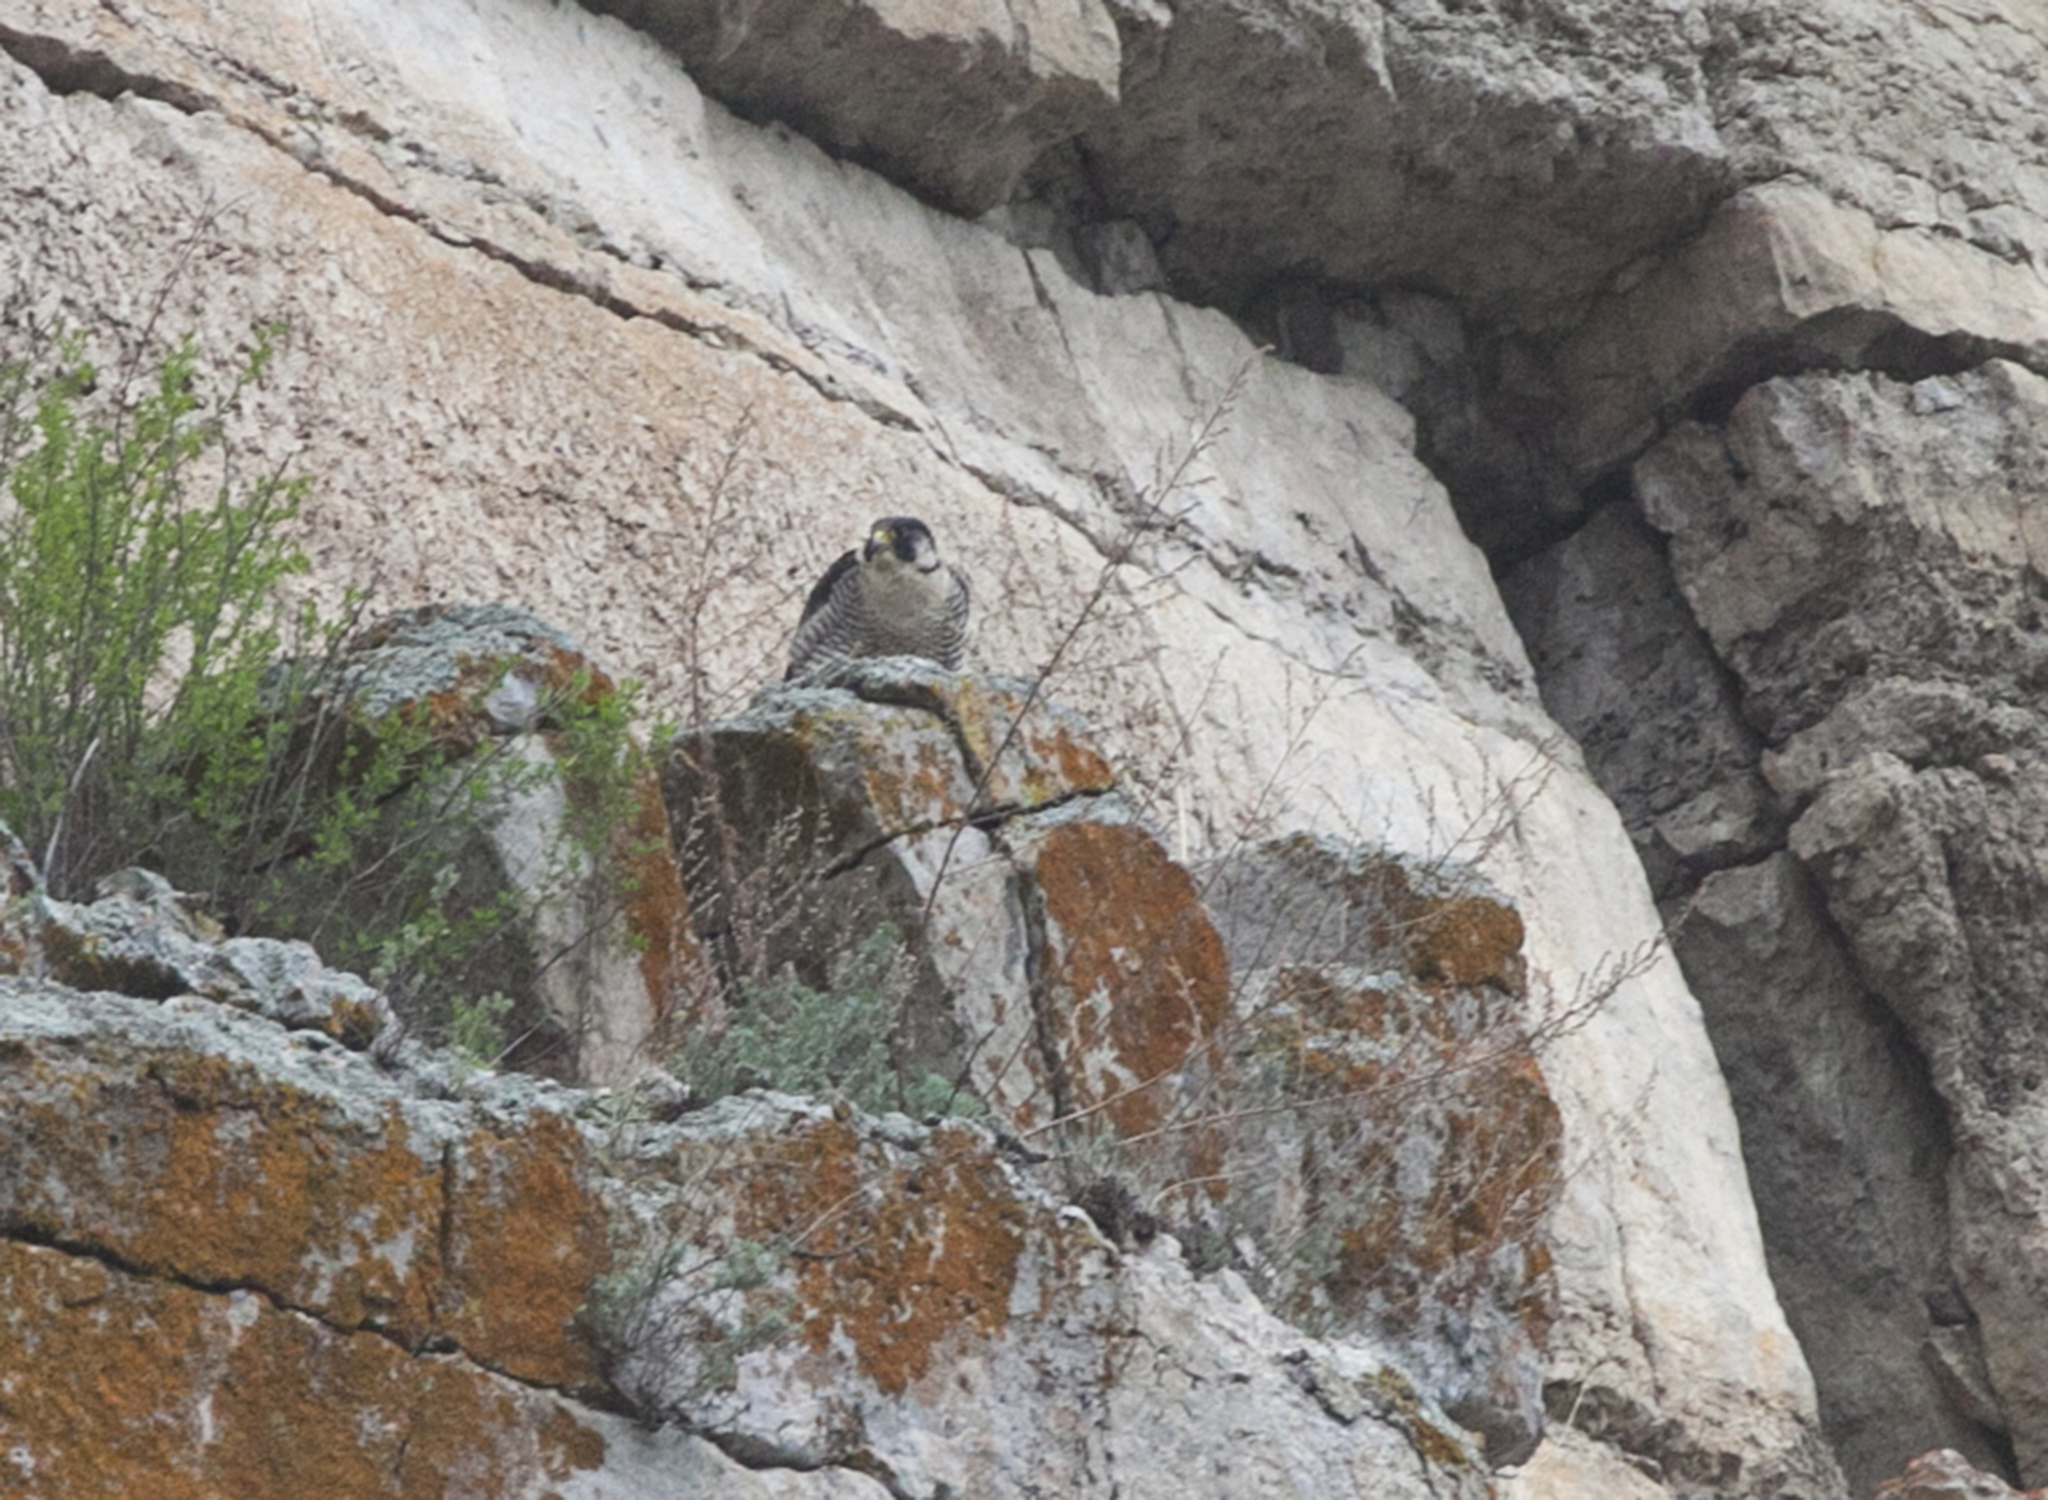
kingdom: Animalia
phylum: Chordata
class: Aves
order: Falconiformes
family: Falconidae
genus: Falco
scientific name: Falco peregrinus
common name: Peregrine falcon
